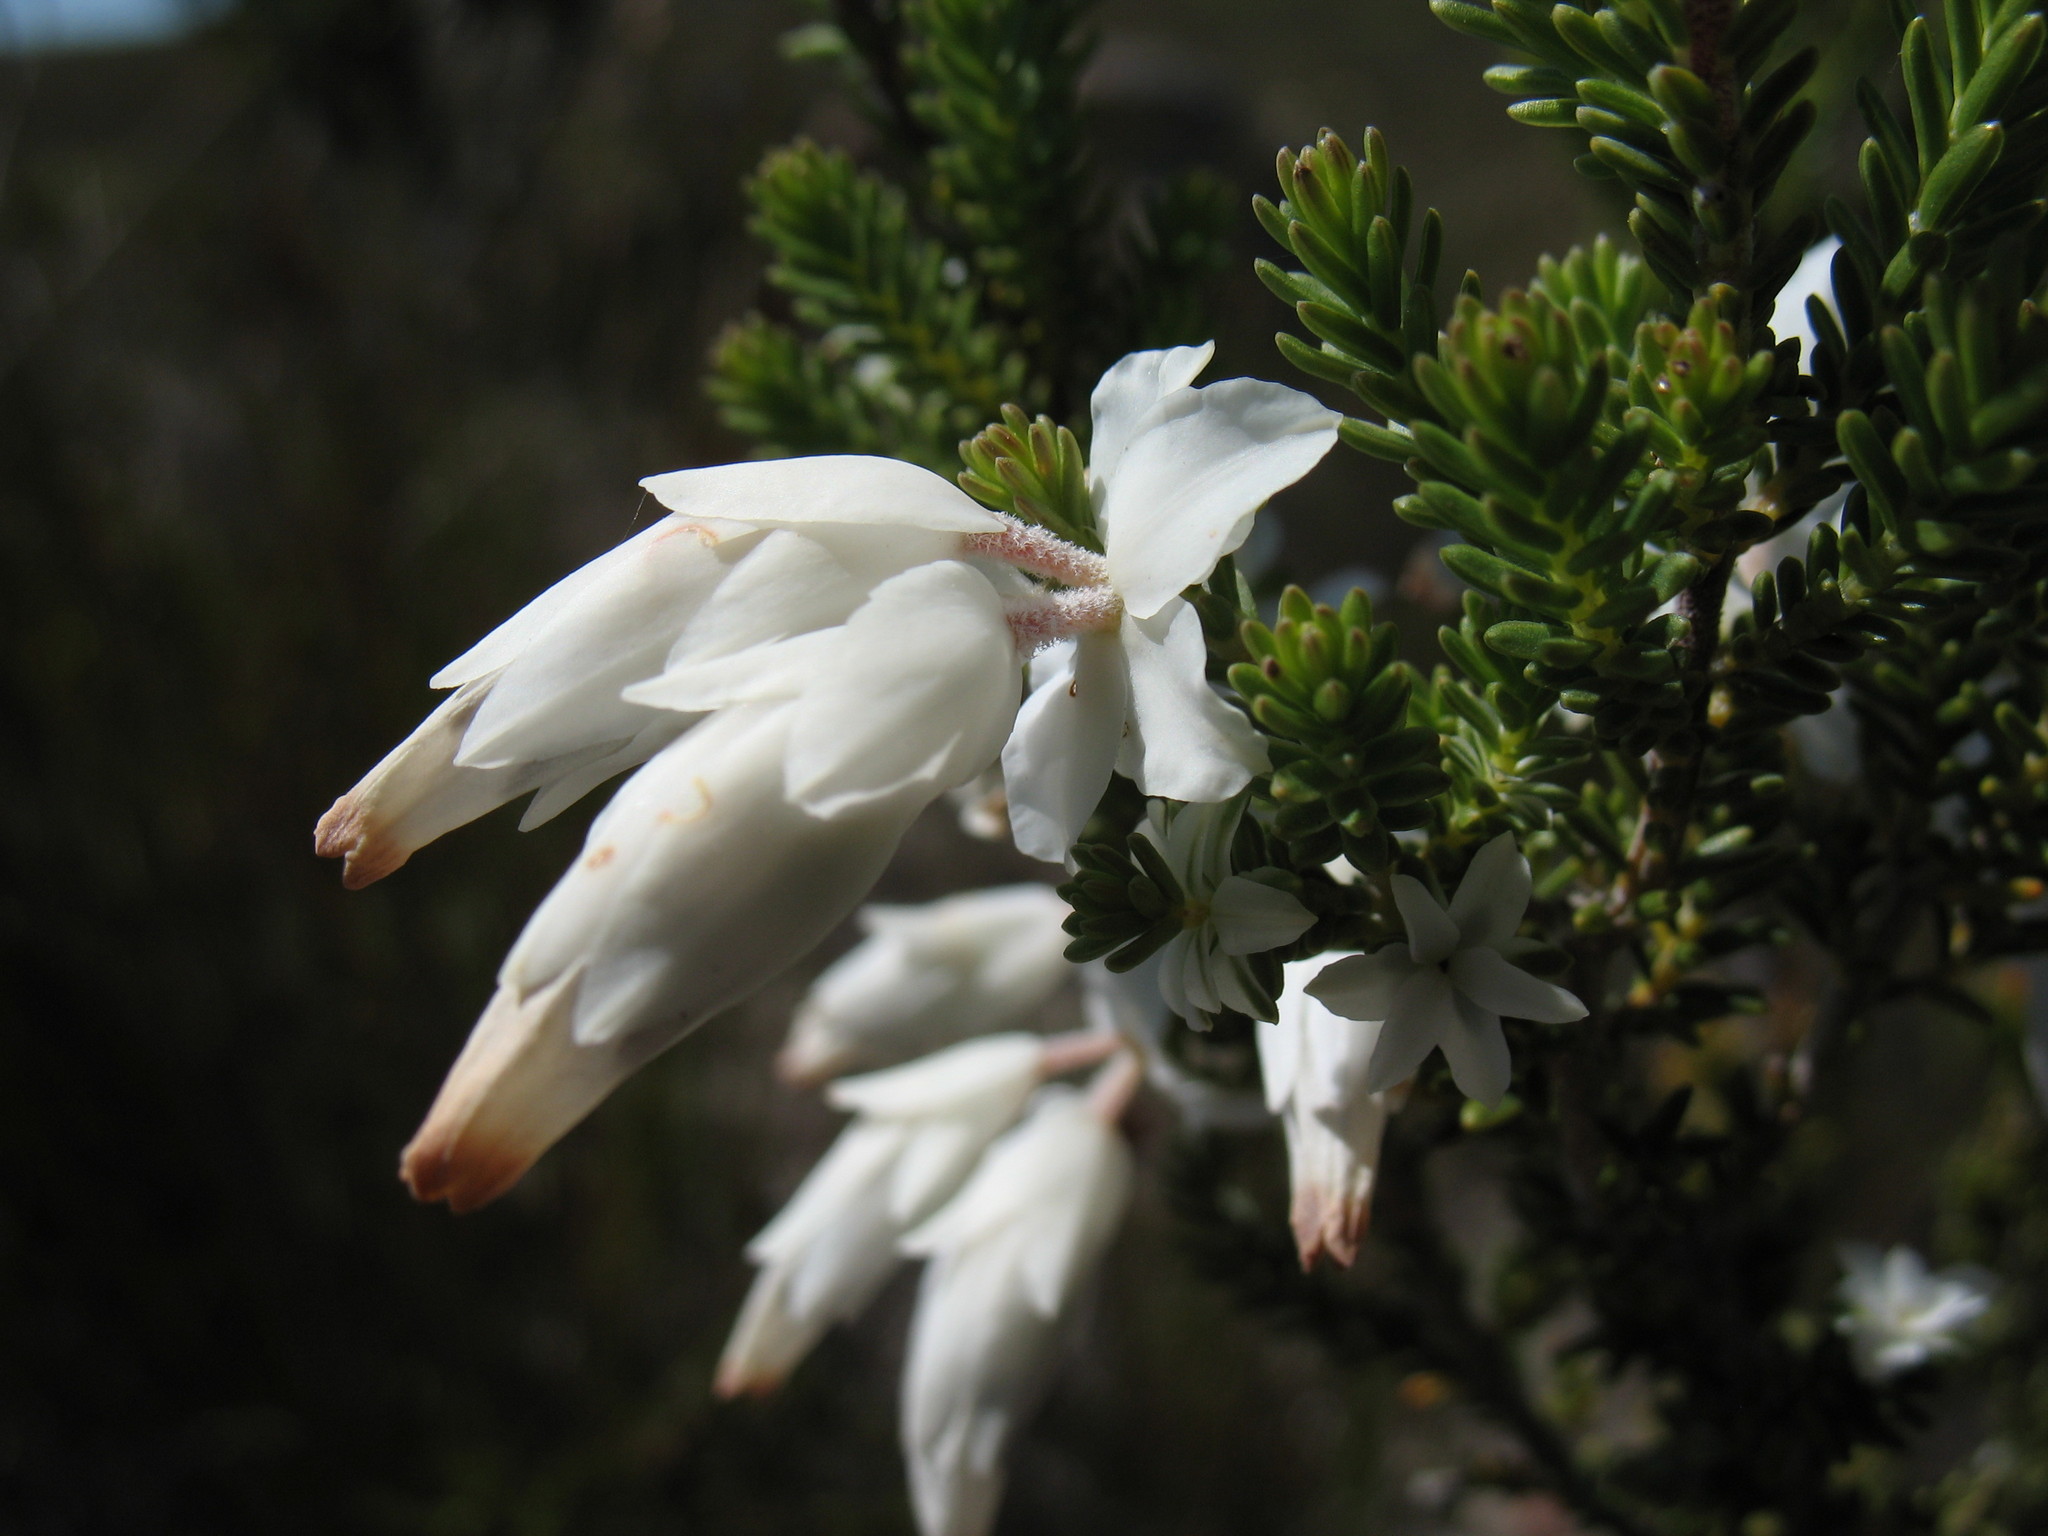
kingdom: Plantae
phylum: Tracheophyta
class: Magnoliopsida
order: Ericales
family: Ericaceae
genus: Erica
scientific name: Erica monsoniana
